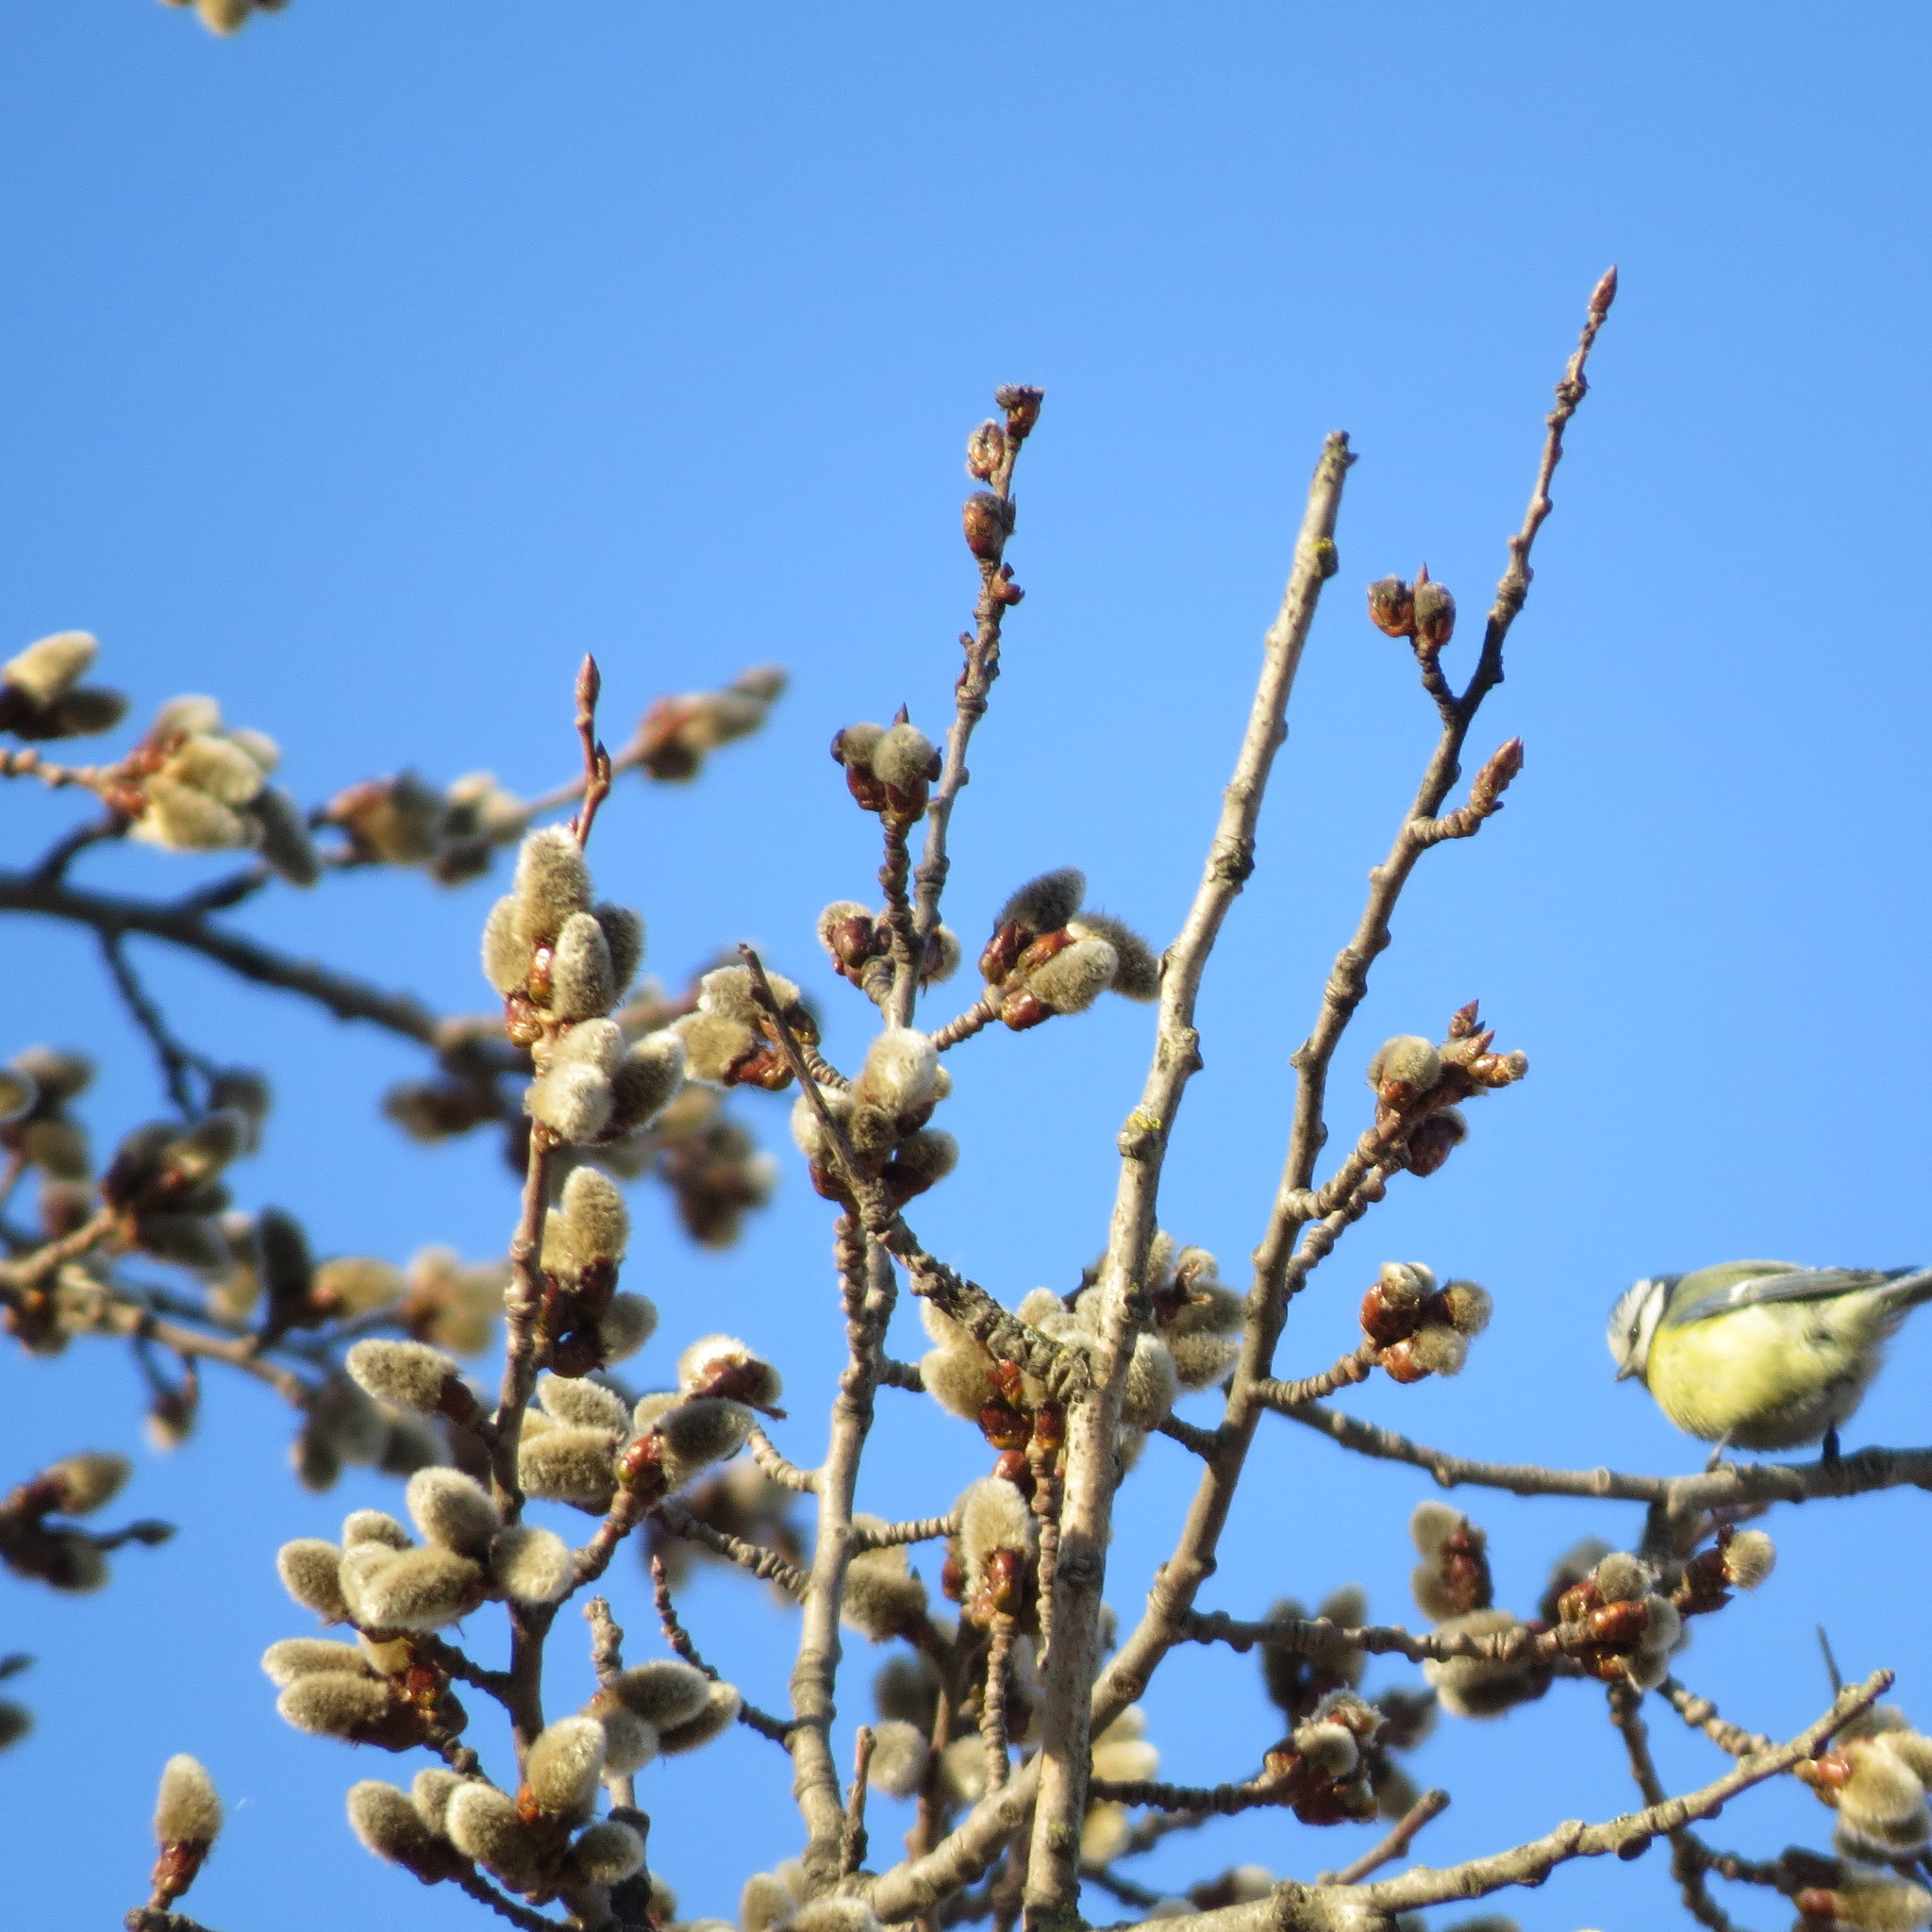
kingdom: Animalia
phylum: Chordata
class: Aves
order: Passeriformes
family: Paridae
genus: Cyanistes
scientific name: Cyanistes caeruleus
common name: Eurasian blue tit
